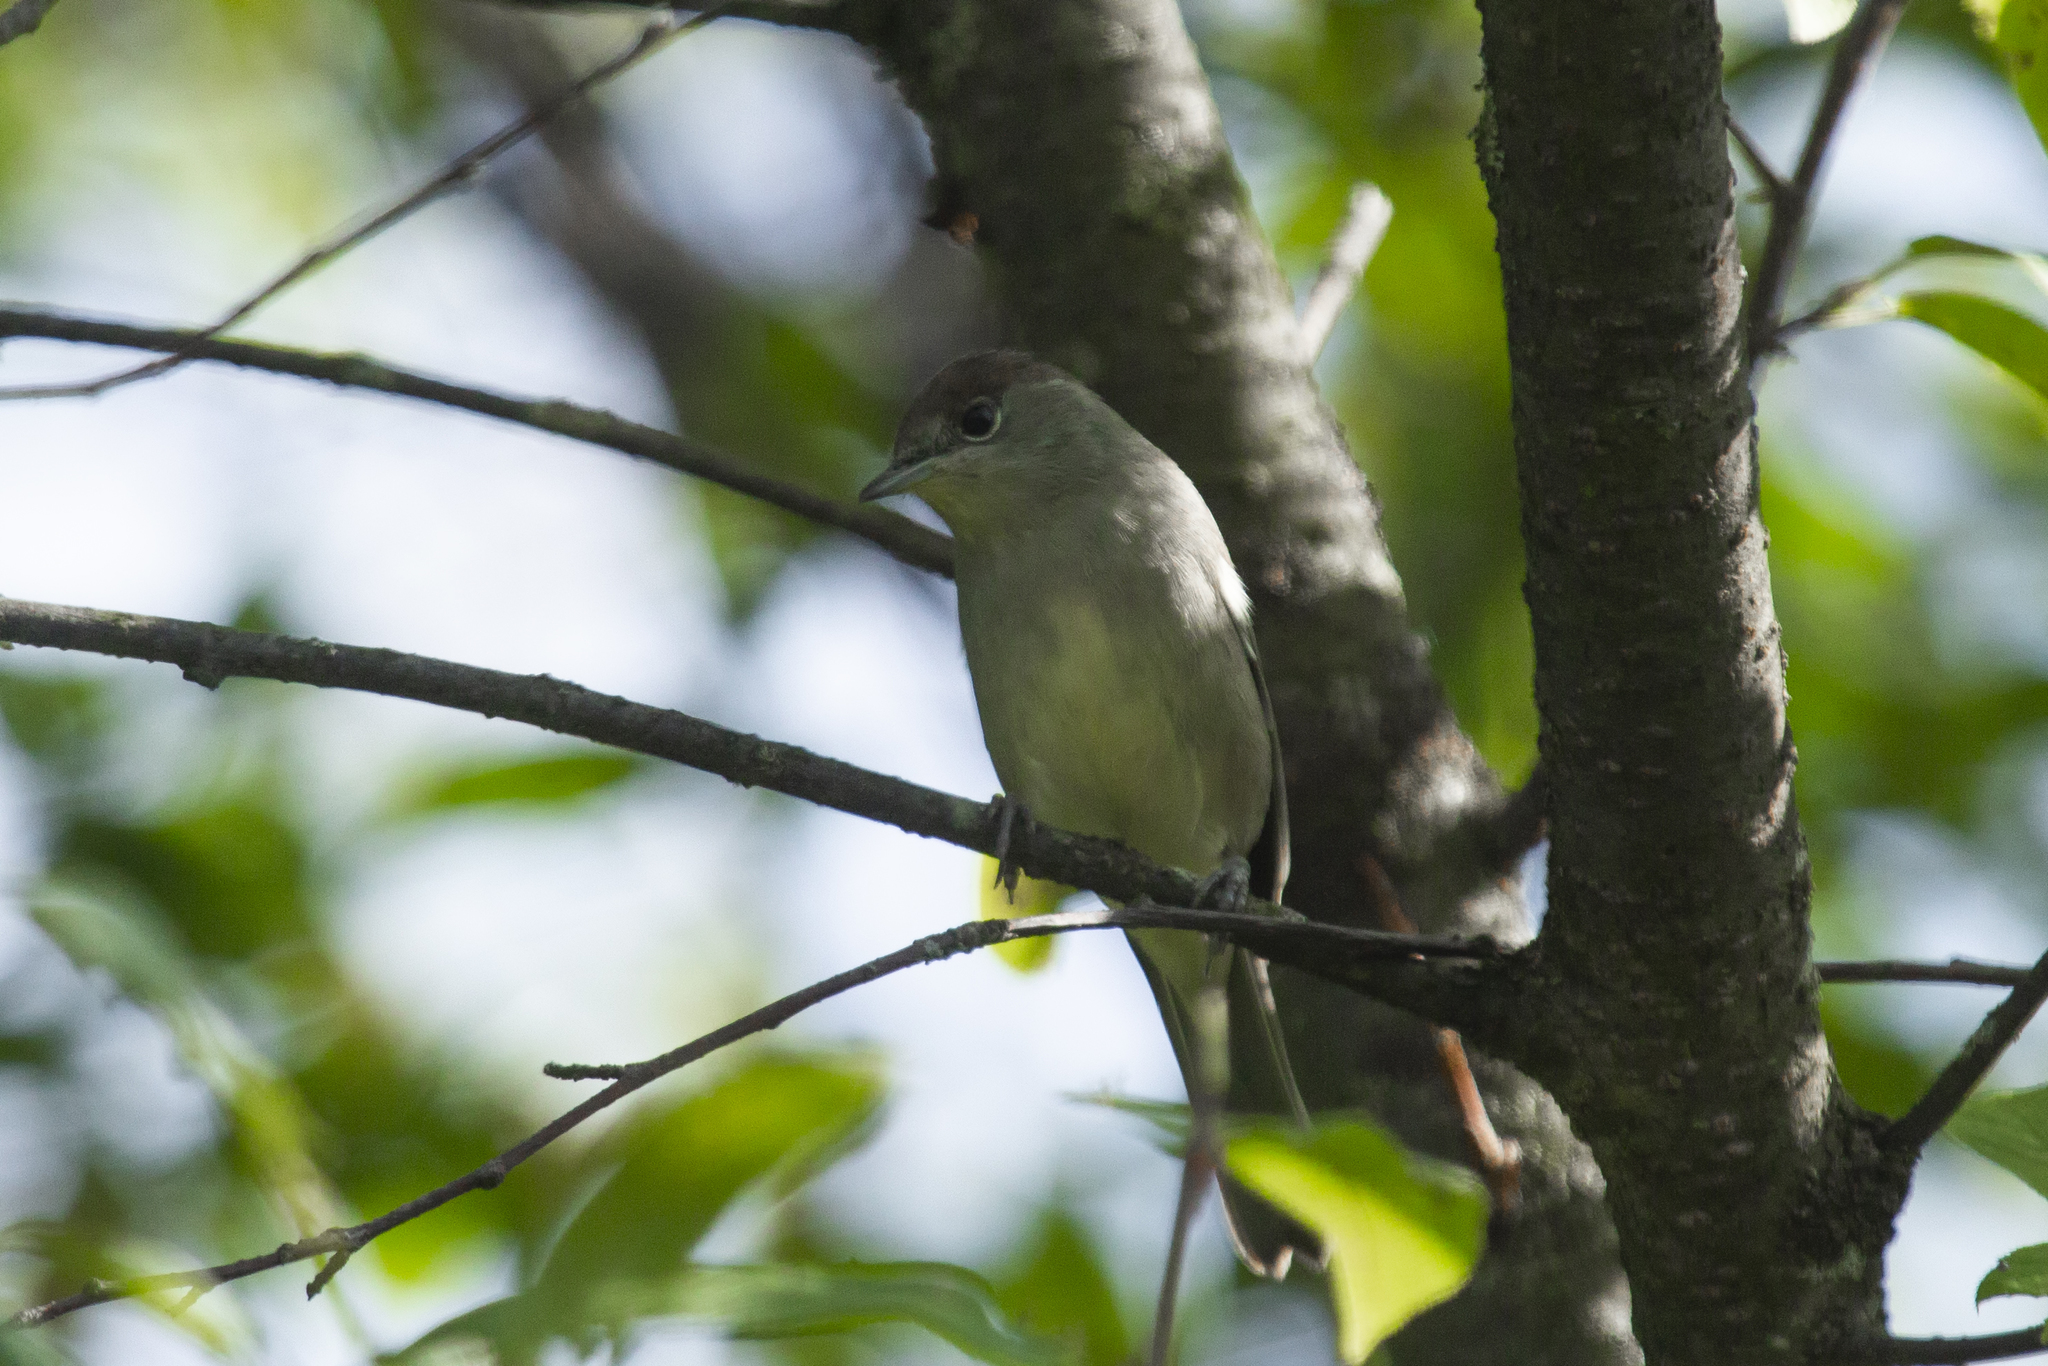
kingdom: Animalia
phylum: Chordata
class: Aves
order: Passeriformes
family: Sylviidae
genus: Sylvia
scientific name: Sylvia atricapilla
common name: Eurasian blackcap
